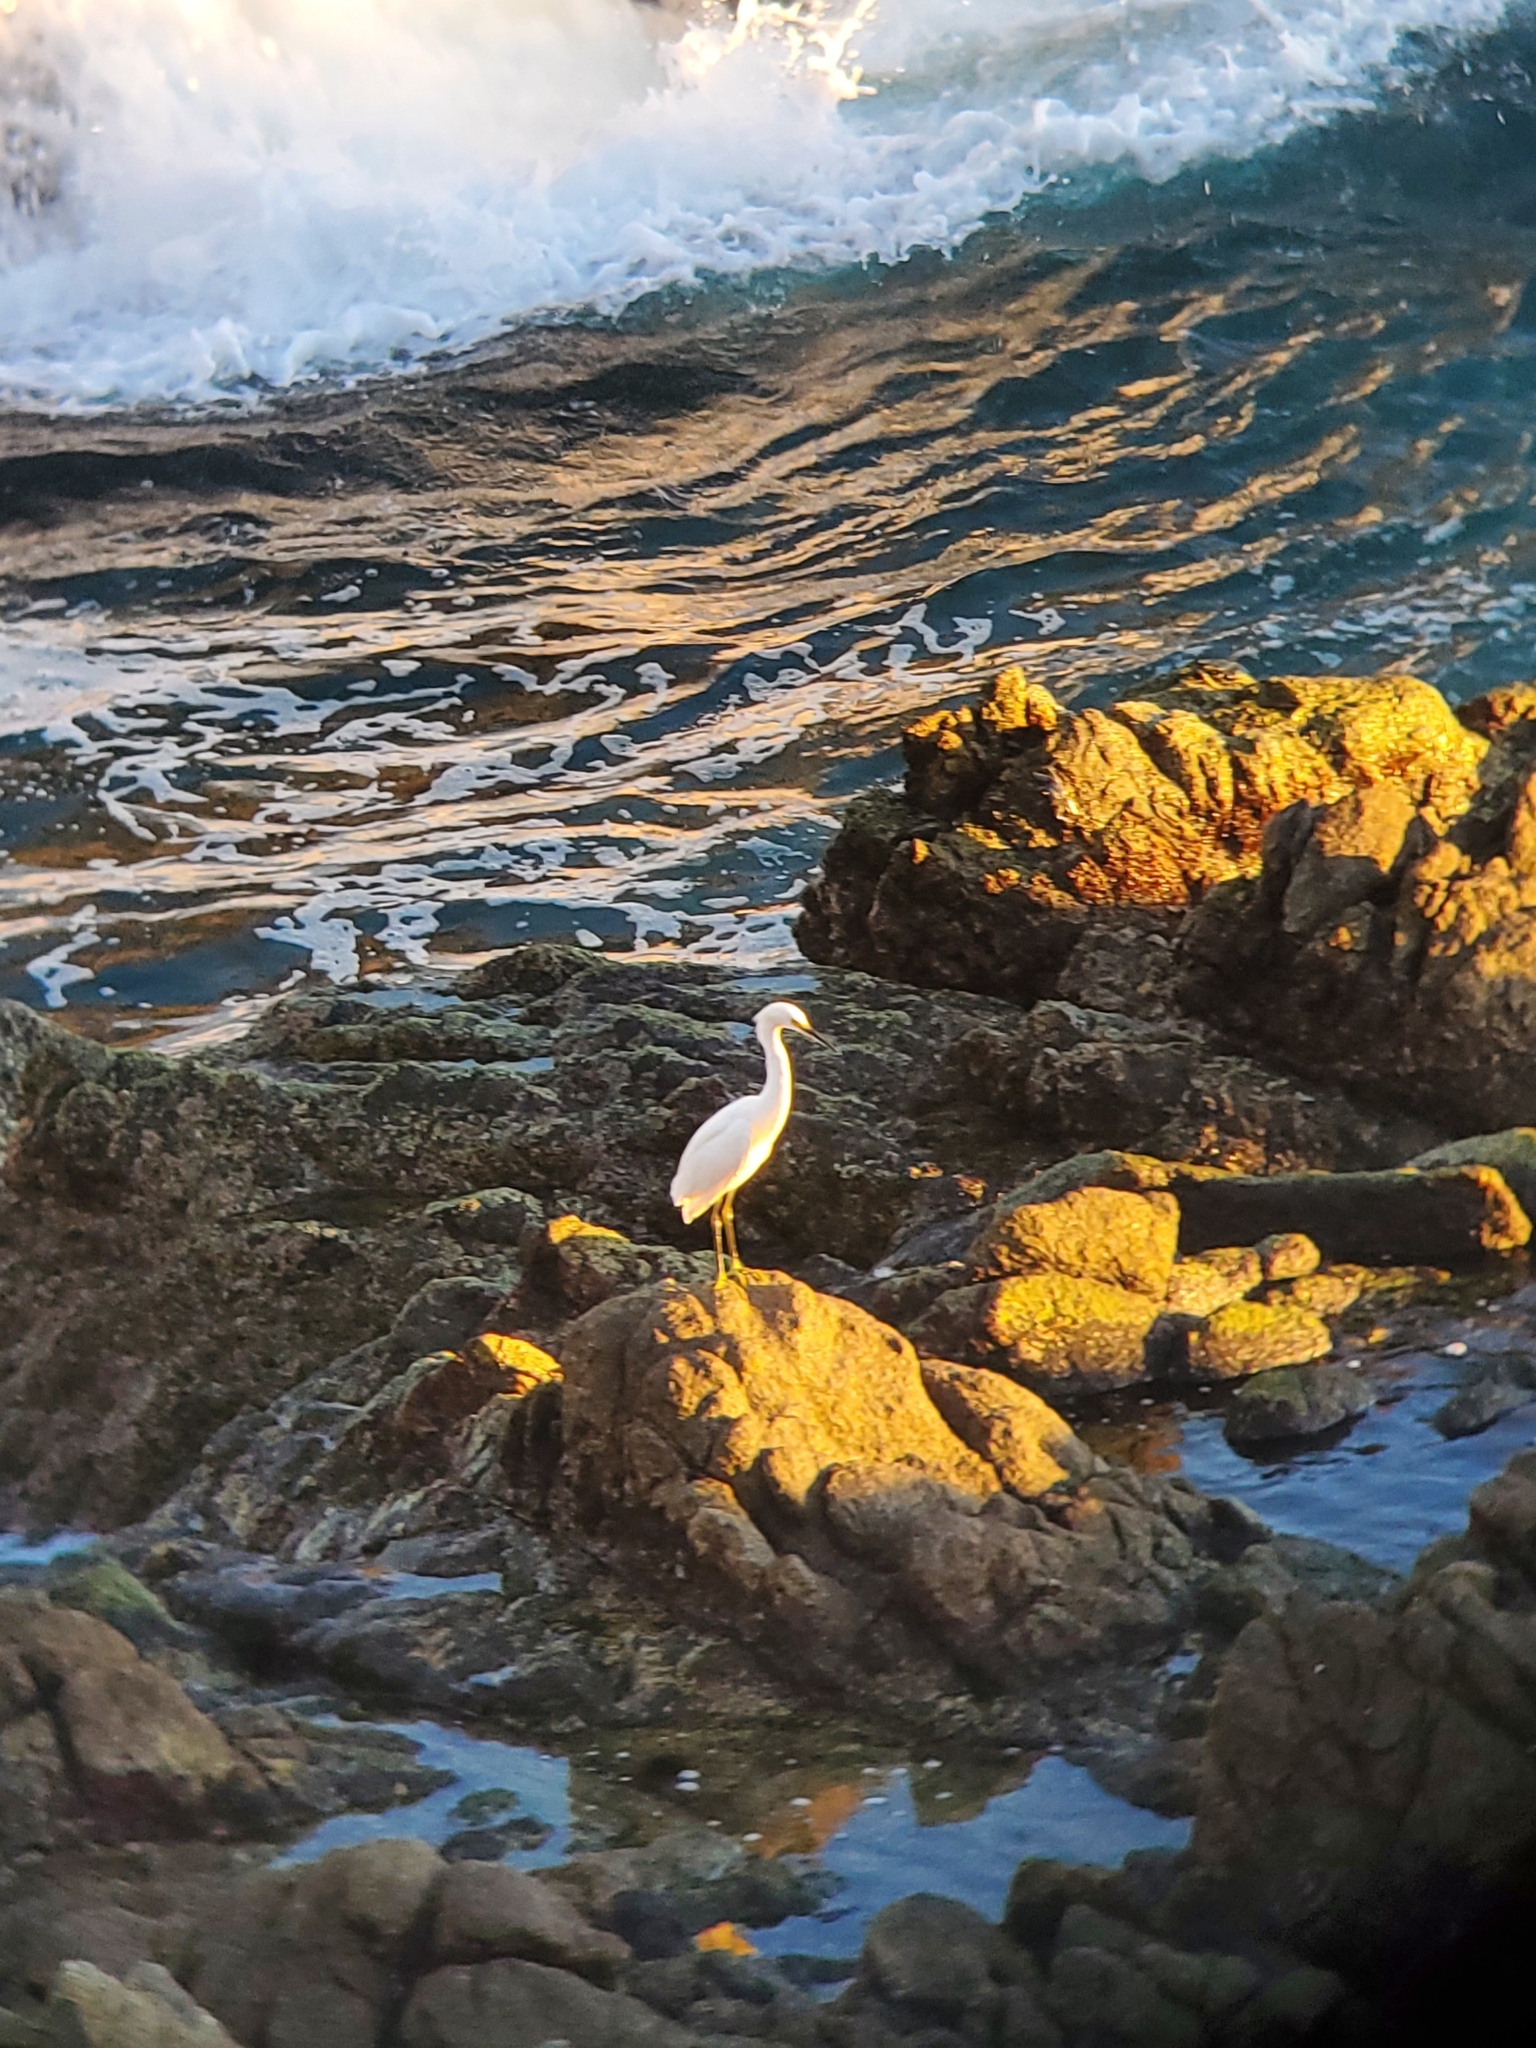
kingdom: Animalia
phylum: Chordata
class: Aves
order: Pelecaniformes
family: Ardeidae
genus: Egretta
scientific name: Egretta thula
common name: Snowy egret
